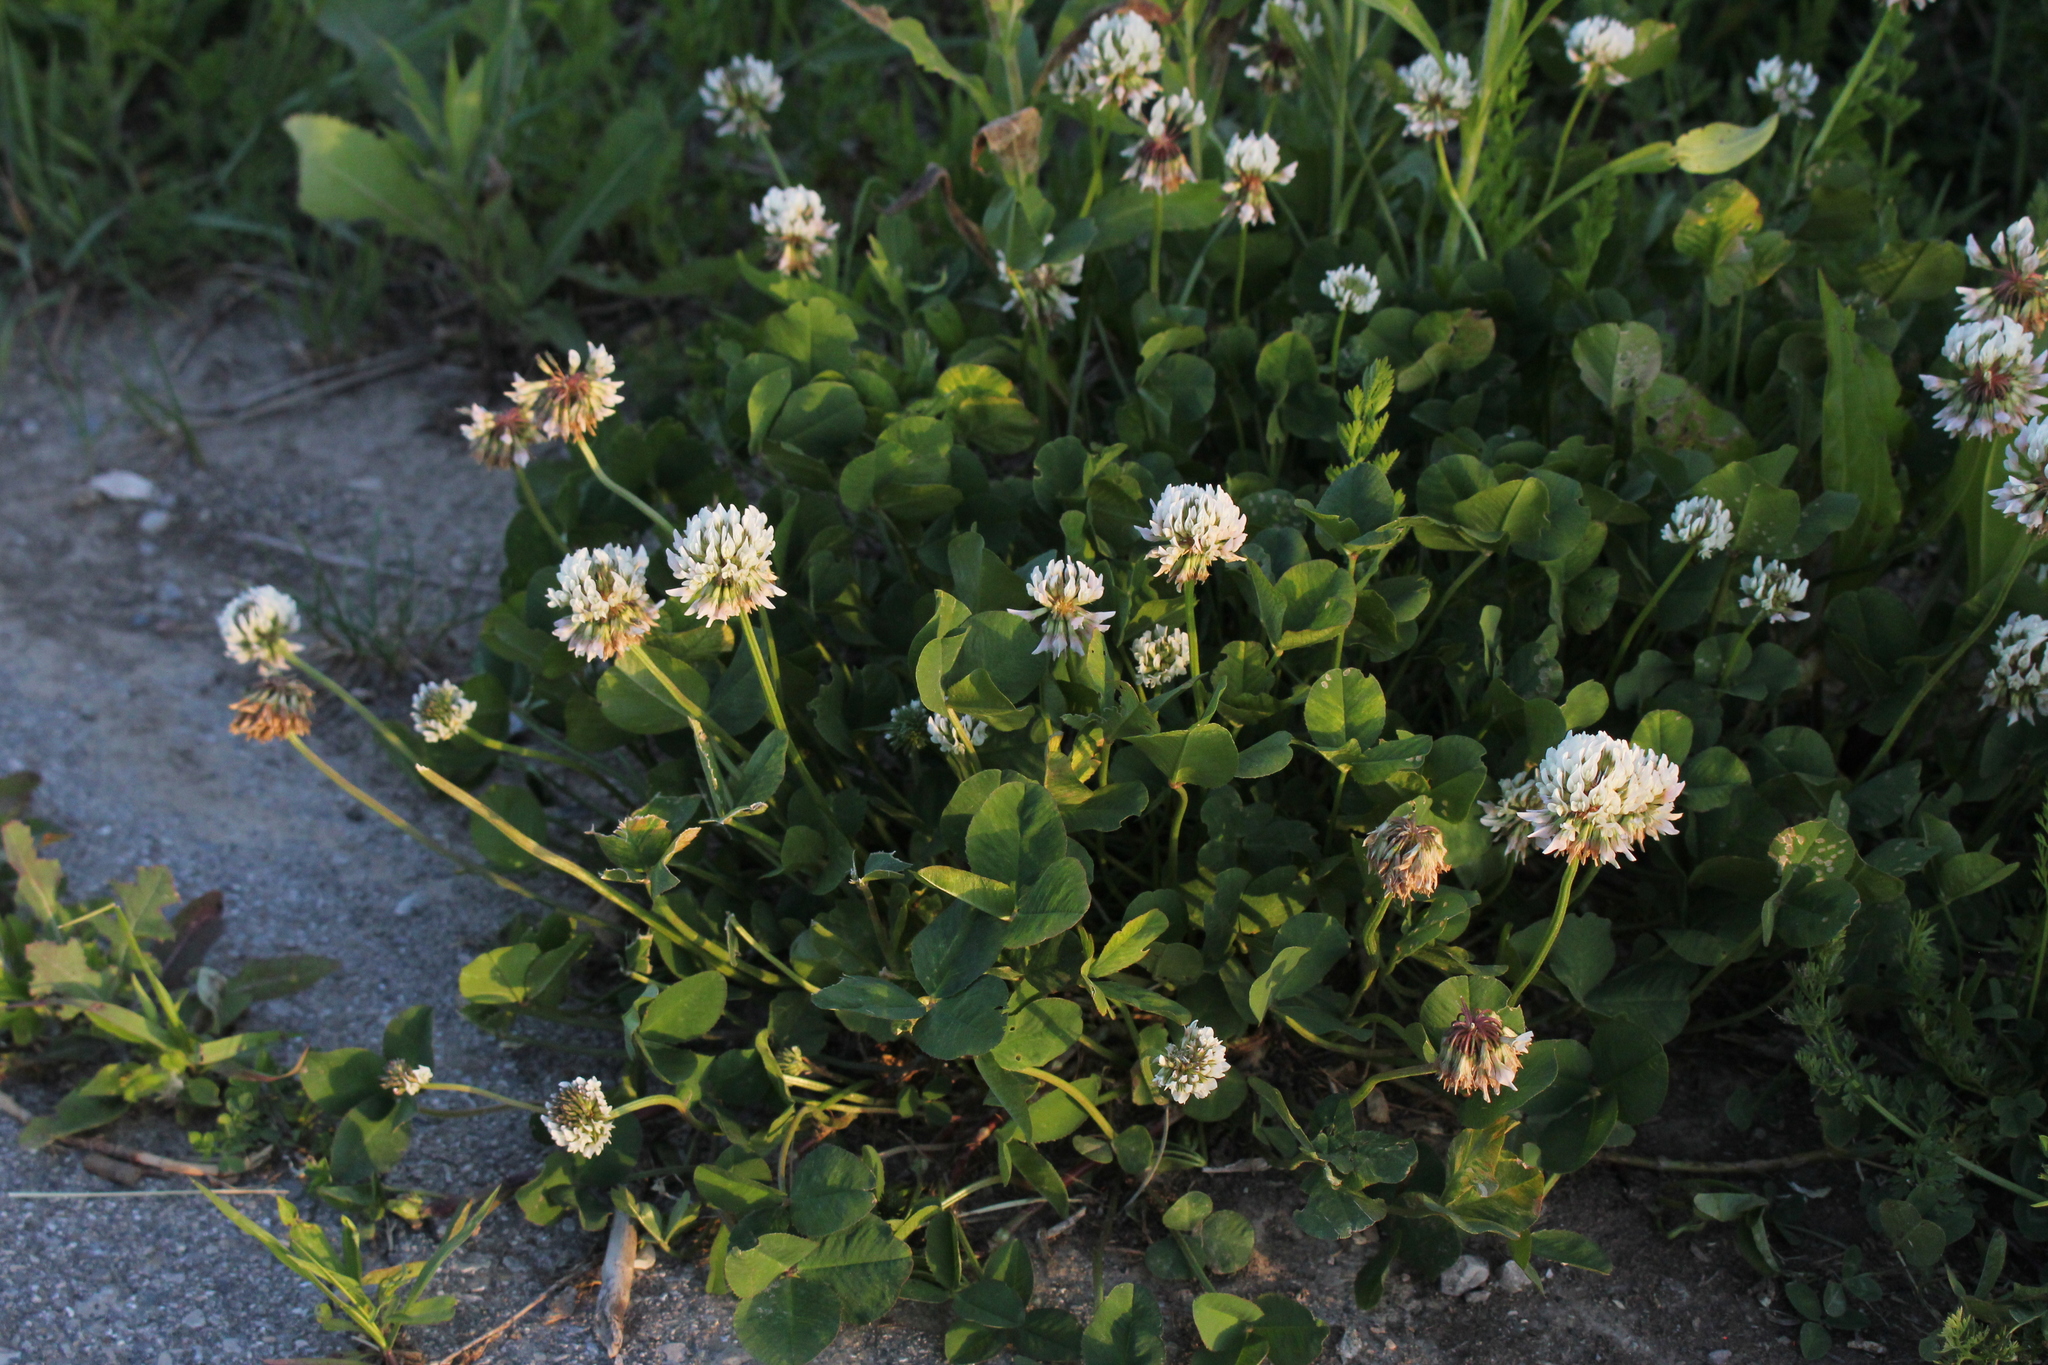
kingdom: Plantae
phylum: Tracheophyta
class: Magnoliopsida
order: Fabales
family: Fabaceae
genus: Trifolium
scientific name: Trifolium repens
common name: White clover
